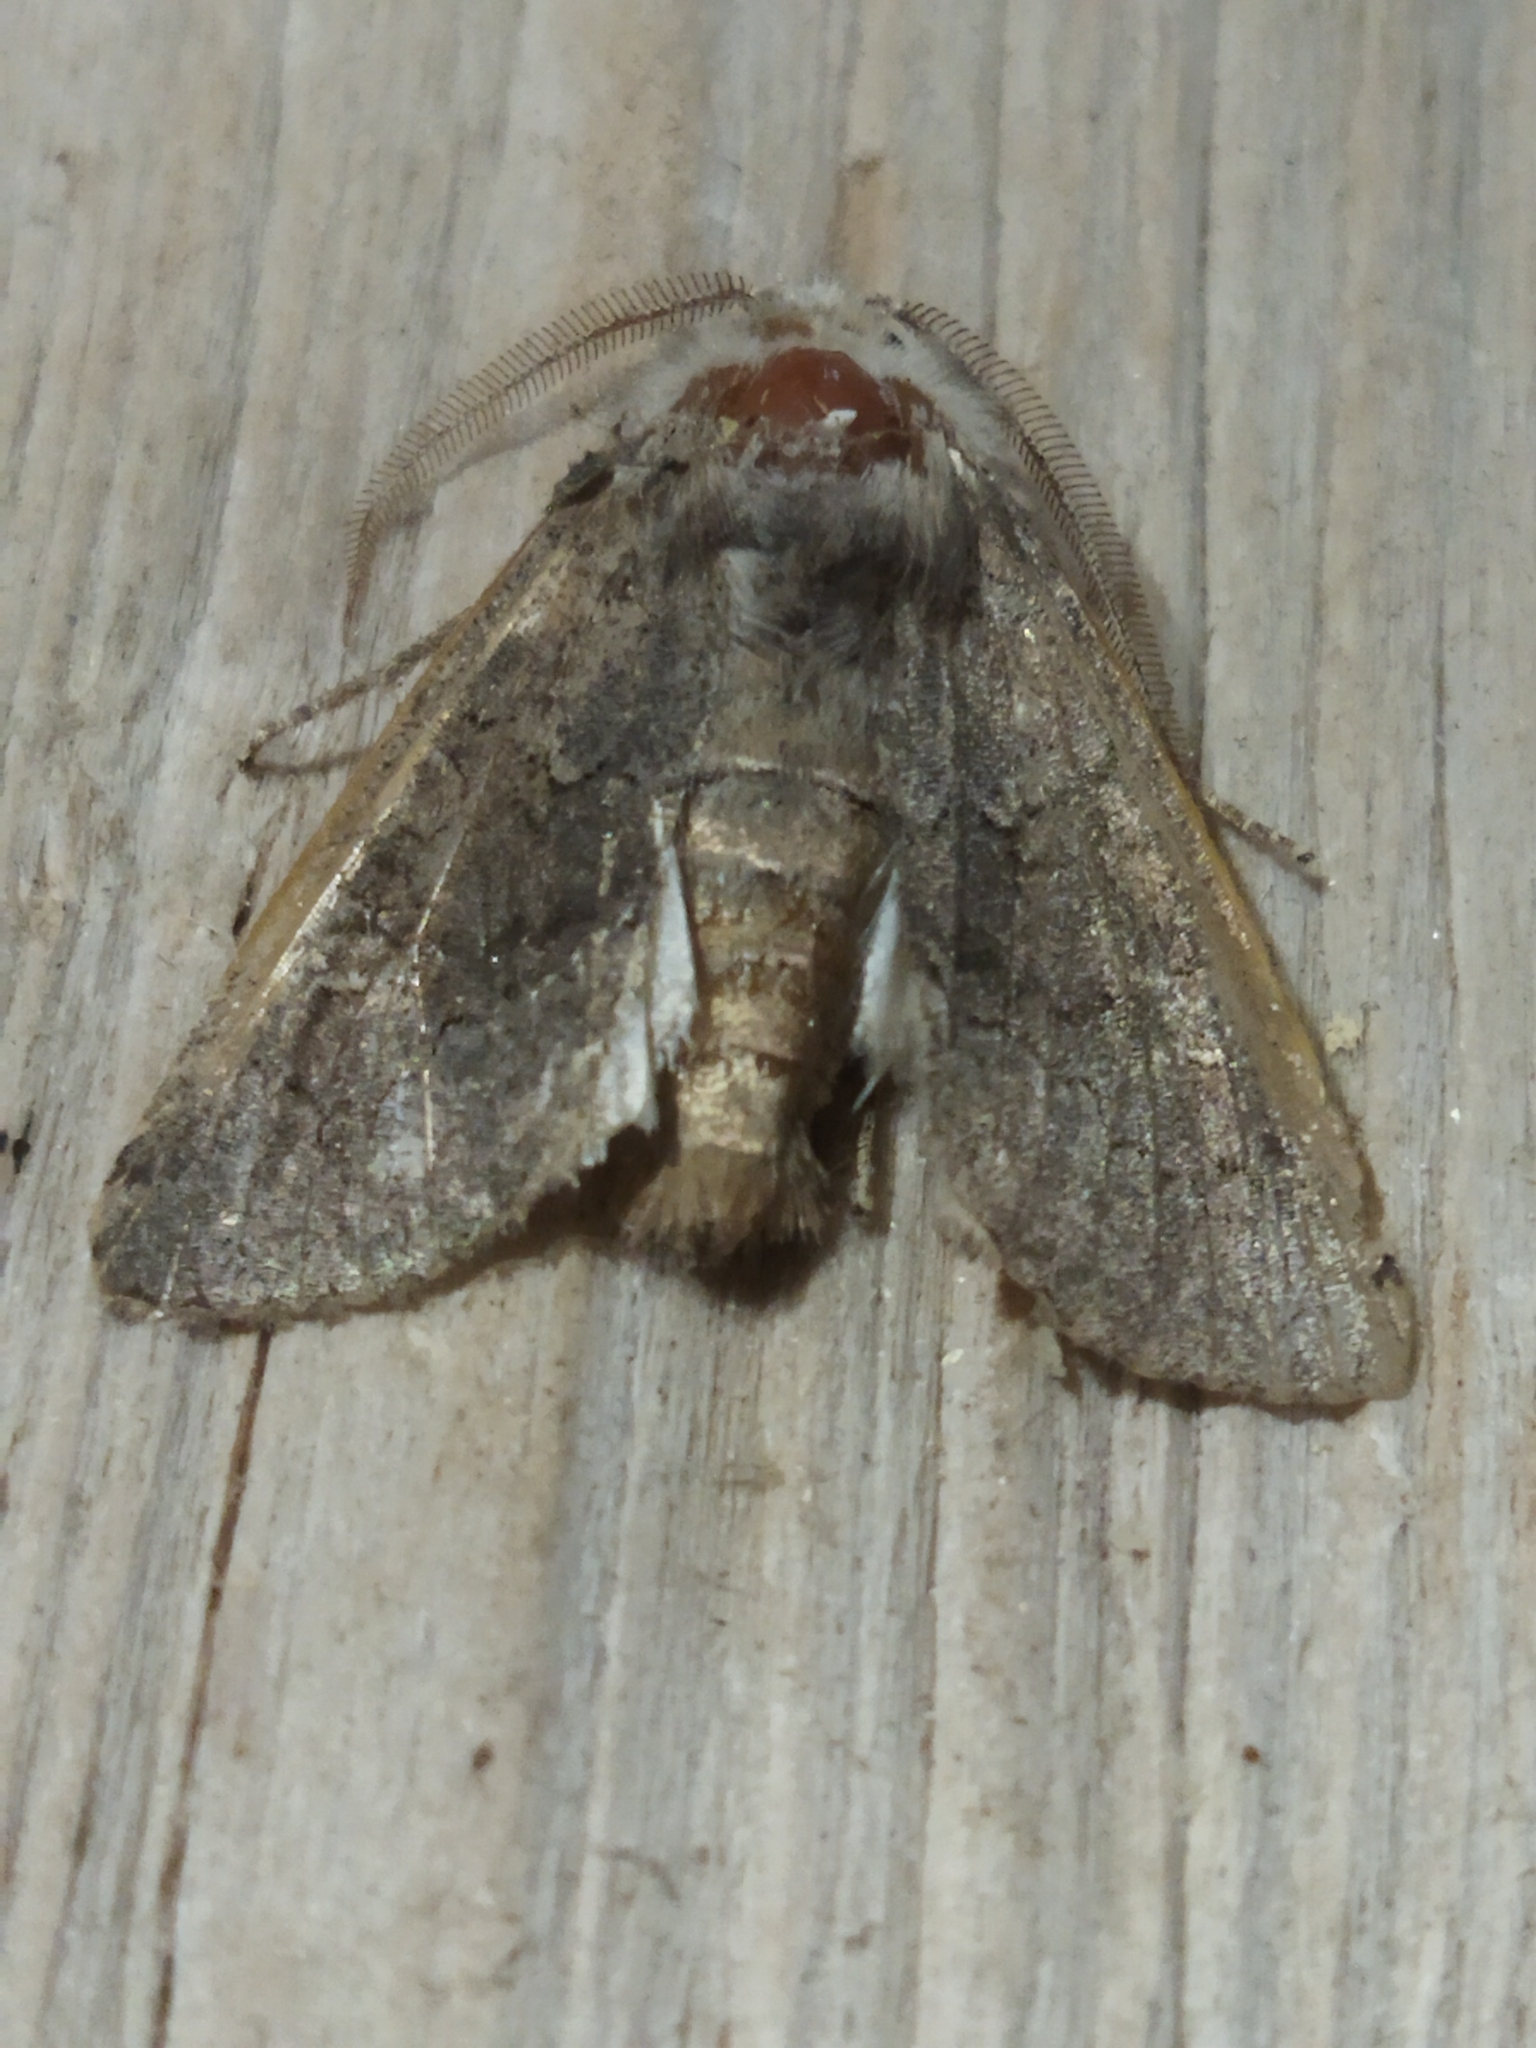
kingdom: Animalia
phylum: Arthropoda
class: Insecta
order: Lepidoptera
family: Noctuidae
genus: Aporophyla
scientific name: Aporophyla lutulenta
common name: Deep-brown dart
